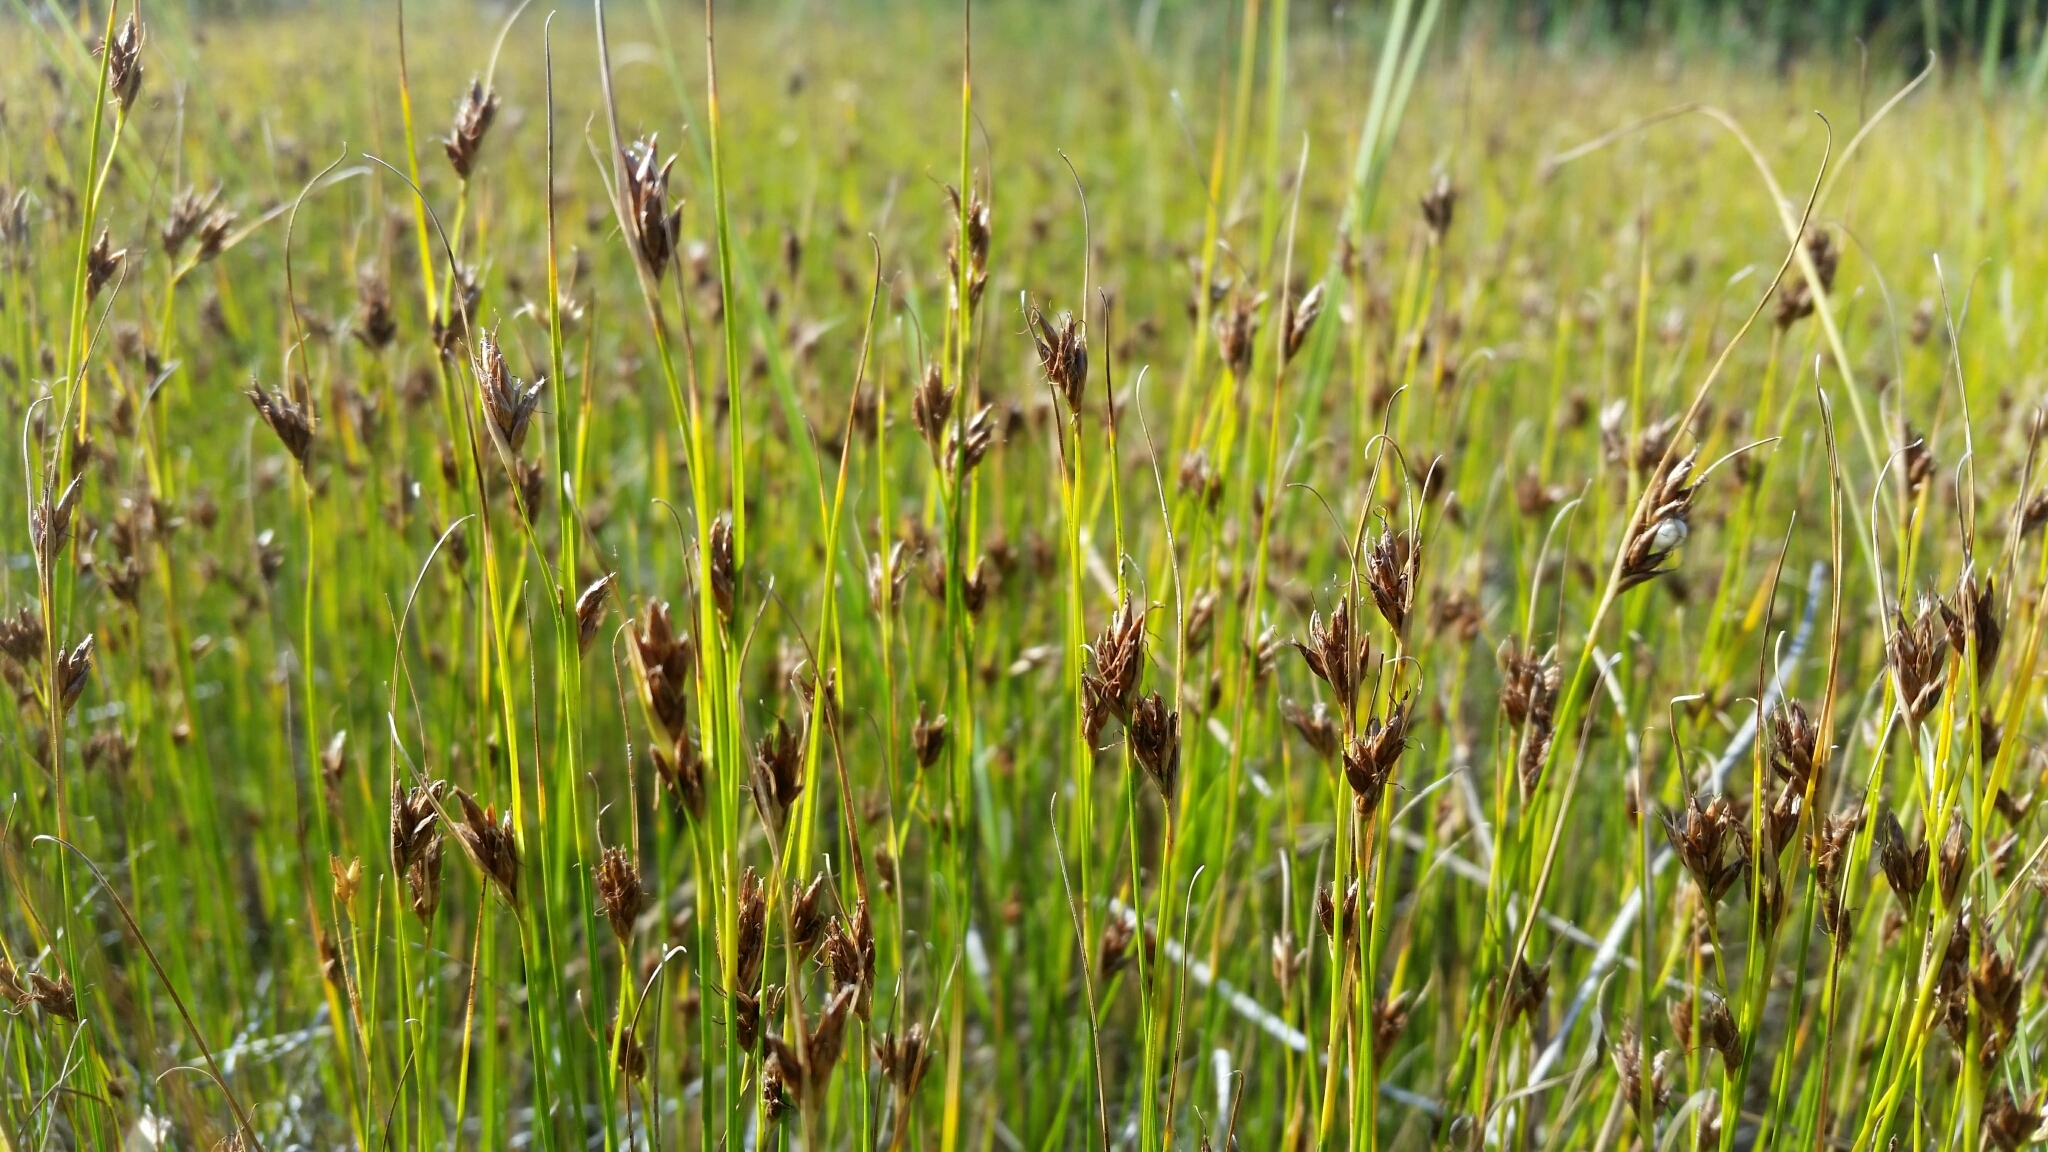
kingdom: Plantae
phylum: Tracheophyta
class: Liliopsida
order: Poales
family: Cyperaceae
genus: Rhynchospora
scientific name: Rhynchospora fusca
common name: Brown beak-sedge
